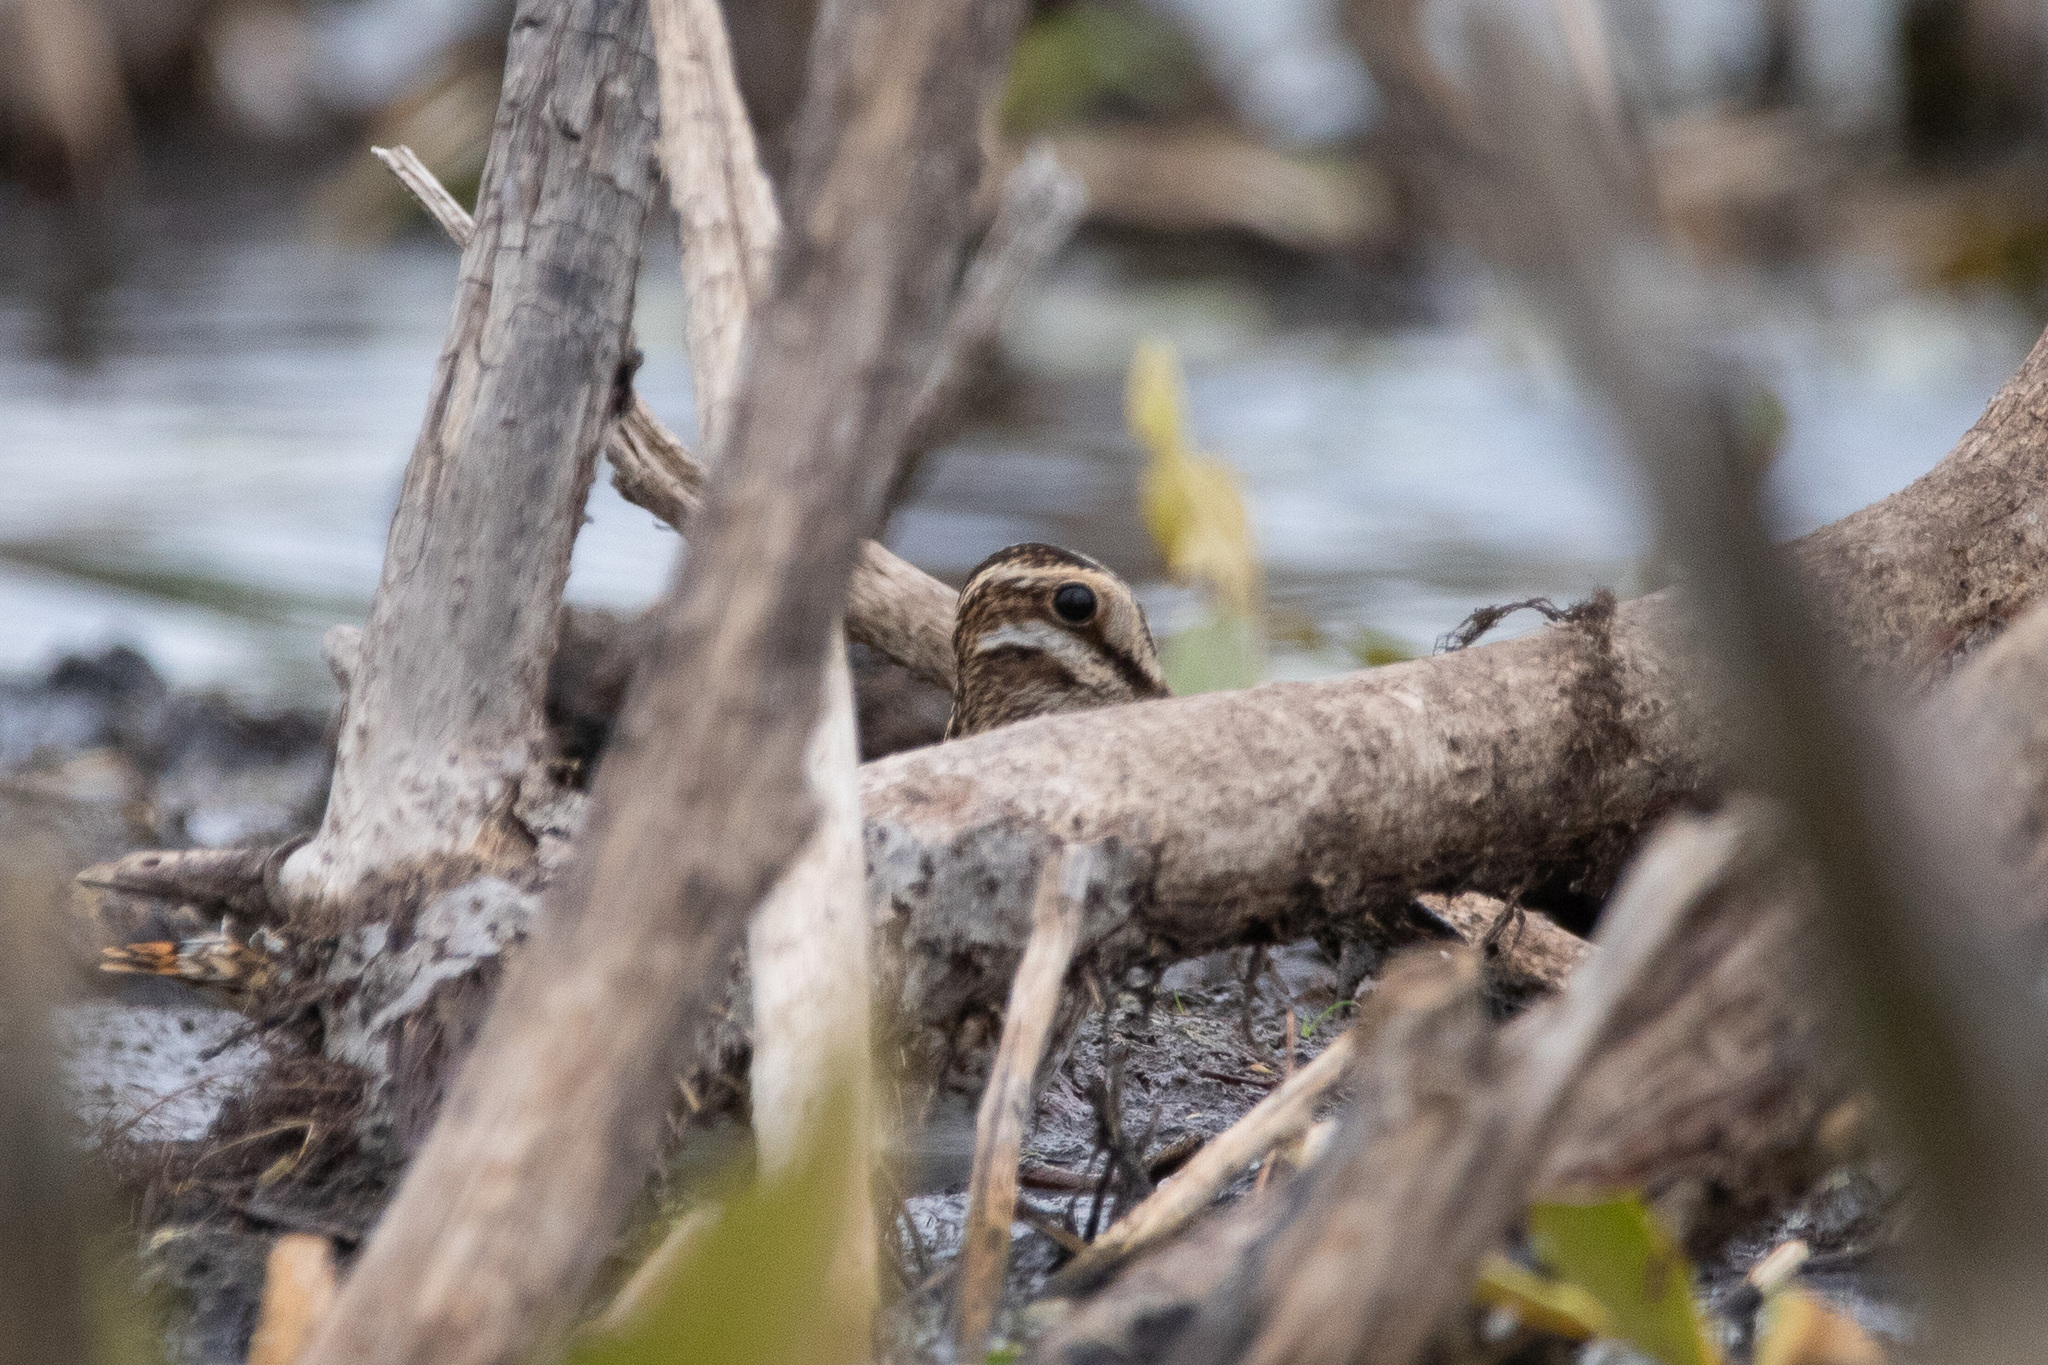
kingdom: Animalia
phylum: Chordata
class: Aves
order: Charadriiformes
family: Scolopacidae
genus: Gallinago
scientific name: Gallinago gallinago
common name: Common snipe
